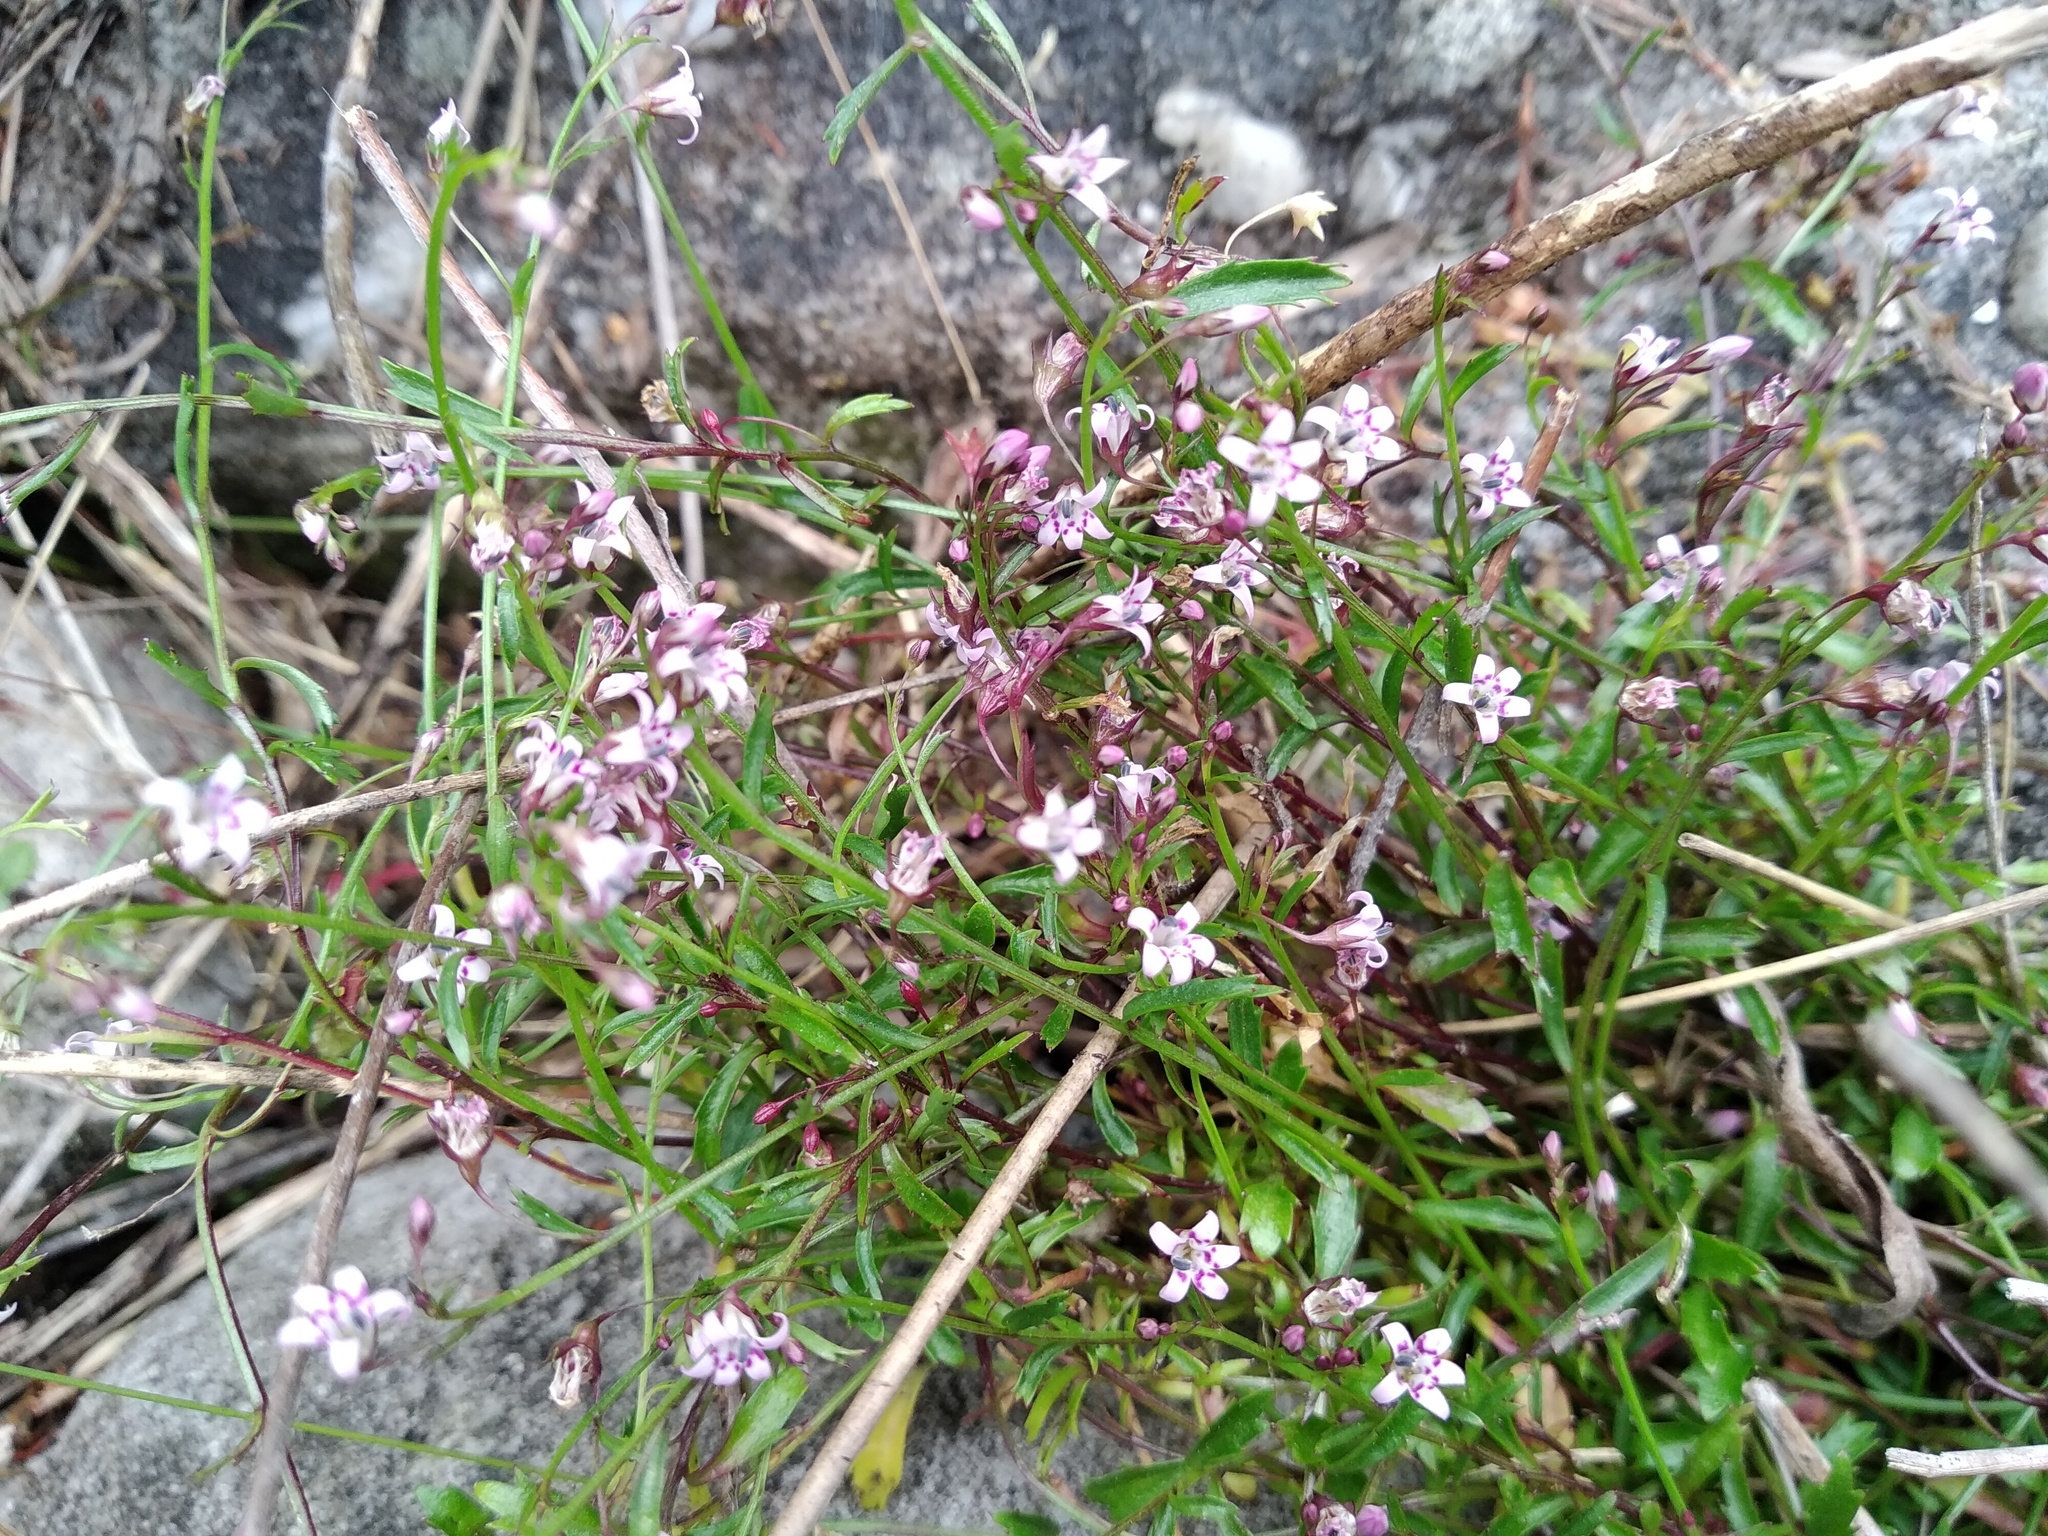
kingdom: Plantae
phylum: Tracheophyta
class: Magnoliopsida
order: Asterales
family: Campanulaceae
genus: Lobelia
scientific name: Lobelia eckloniana
